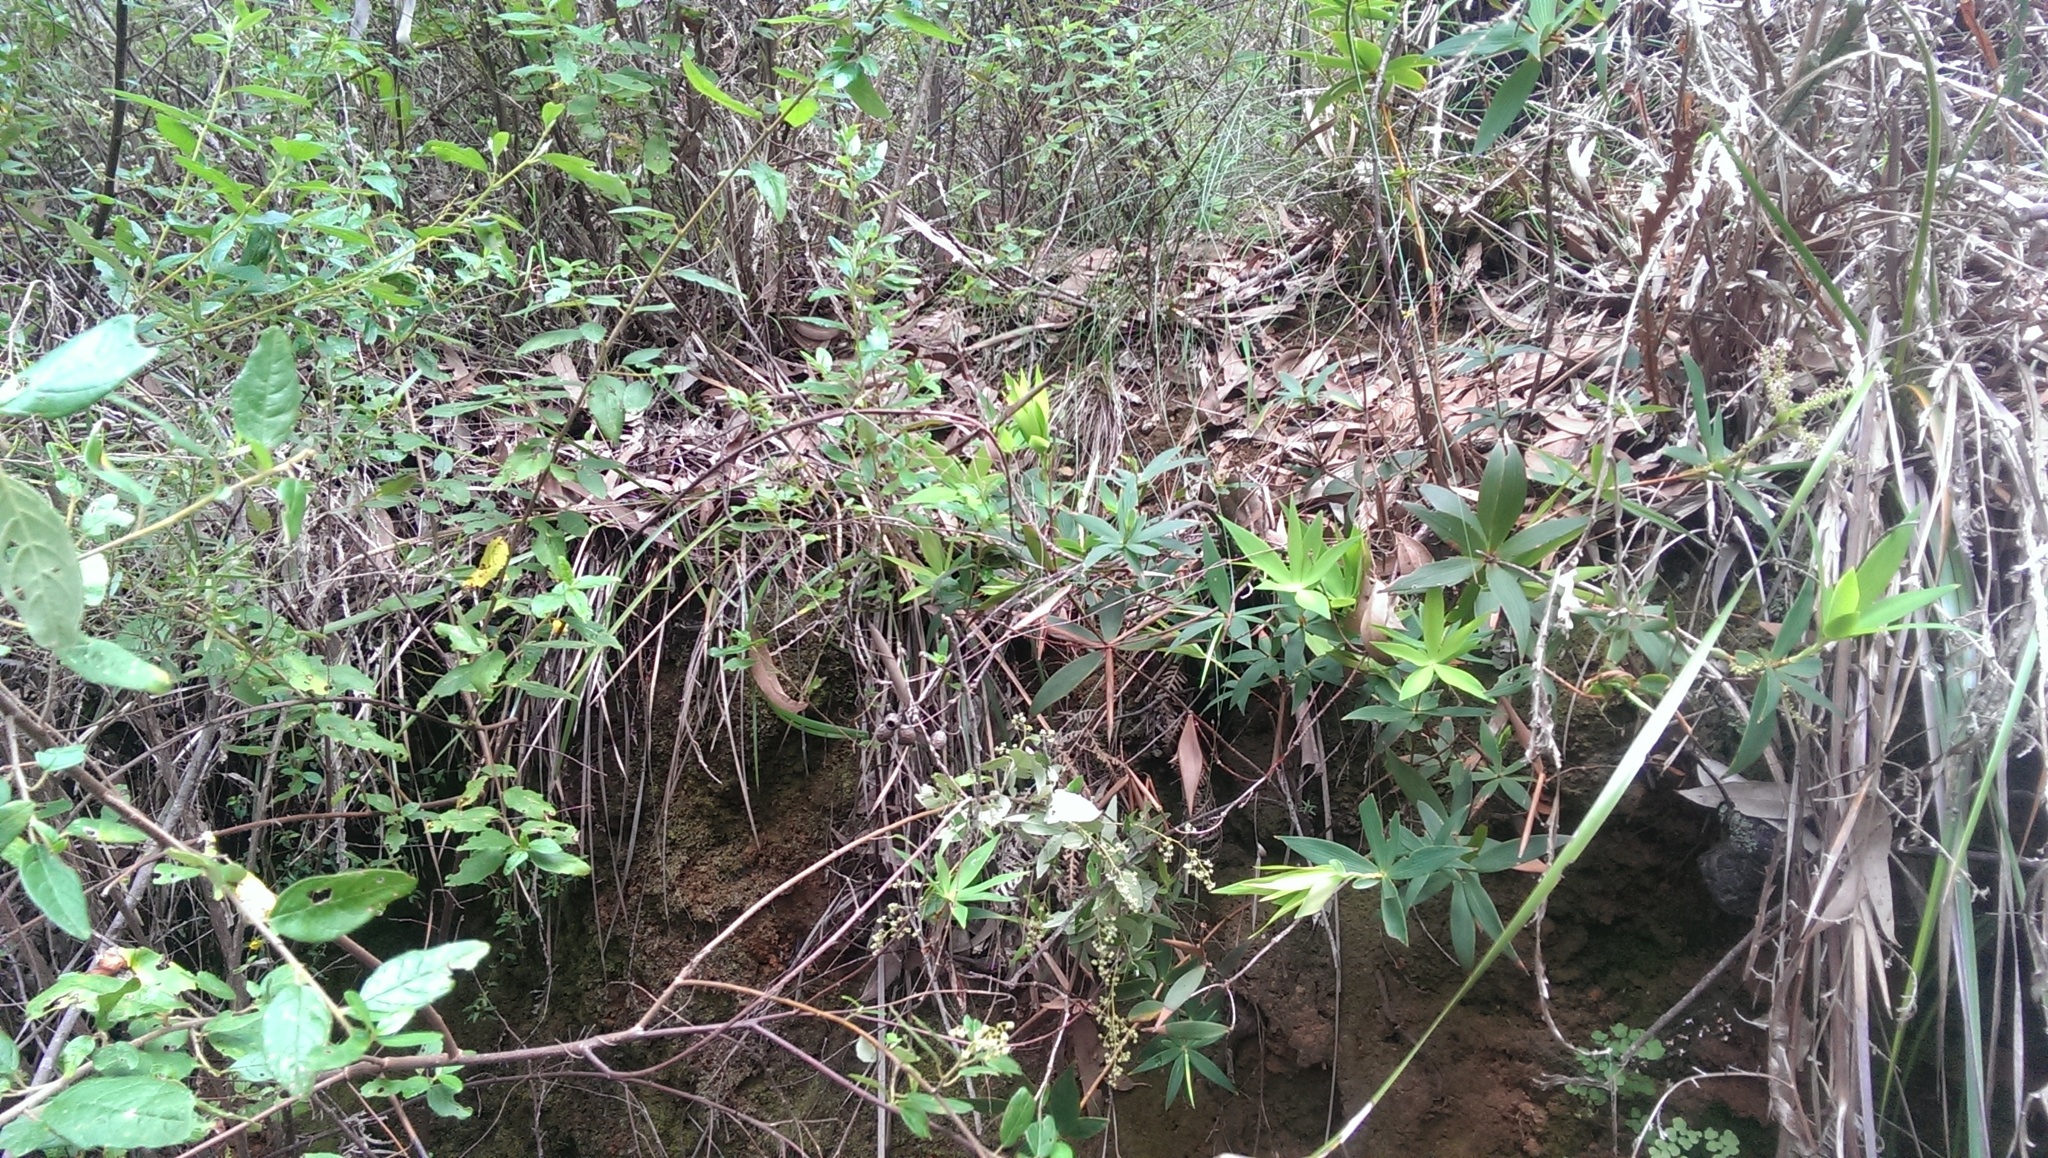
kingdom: Plantae
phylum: Tracheophyta
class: Magnoliopsida
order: Ericales
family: Ericaceae
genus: Leucopogon
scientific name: Leucopogon verticillatus
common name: Tasselshrub
